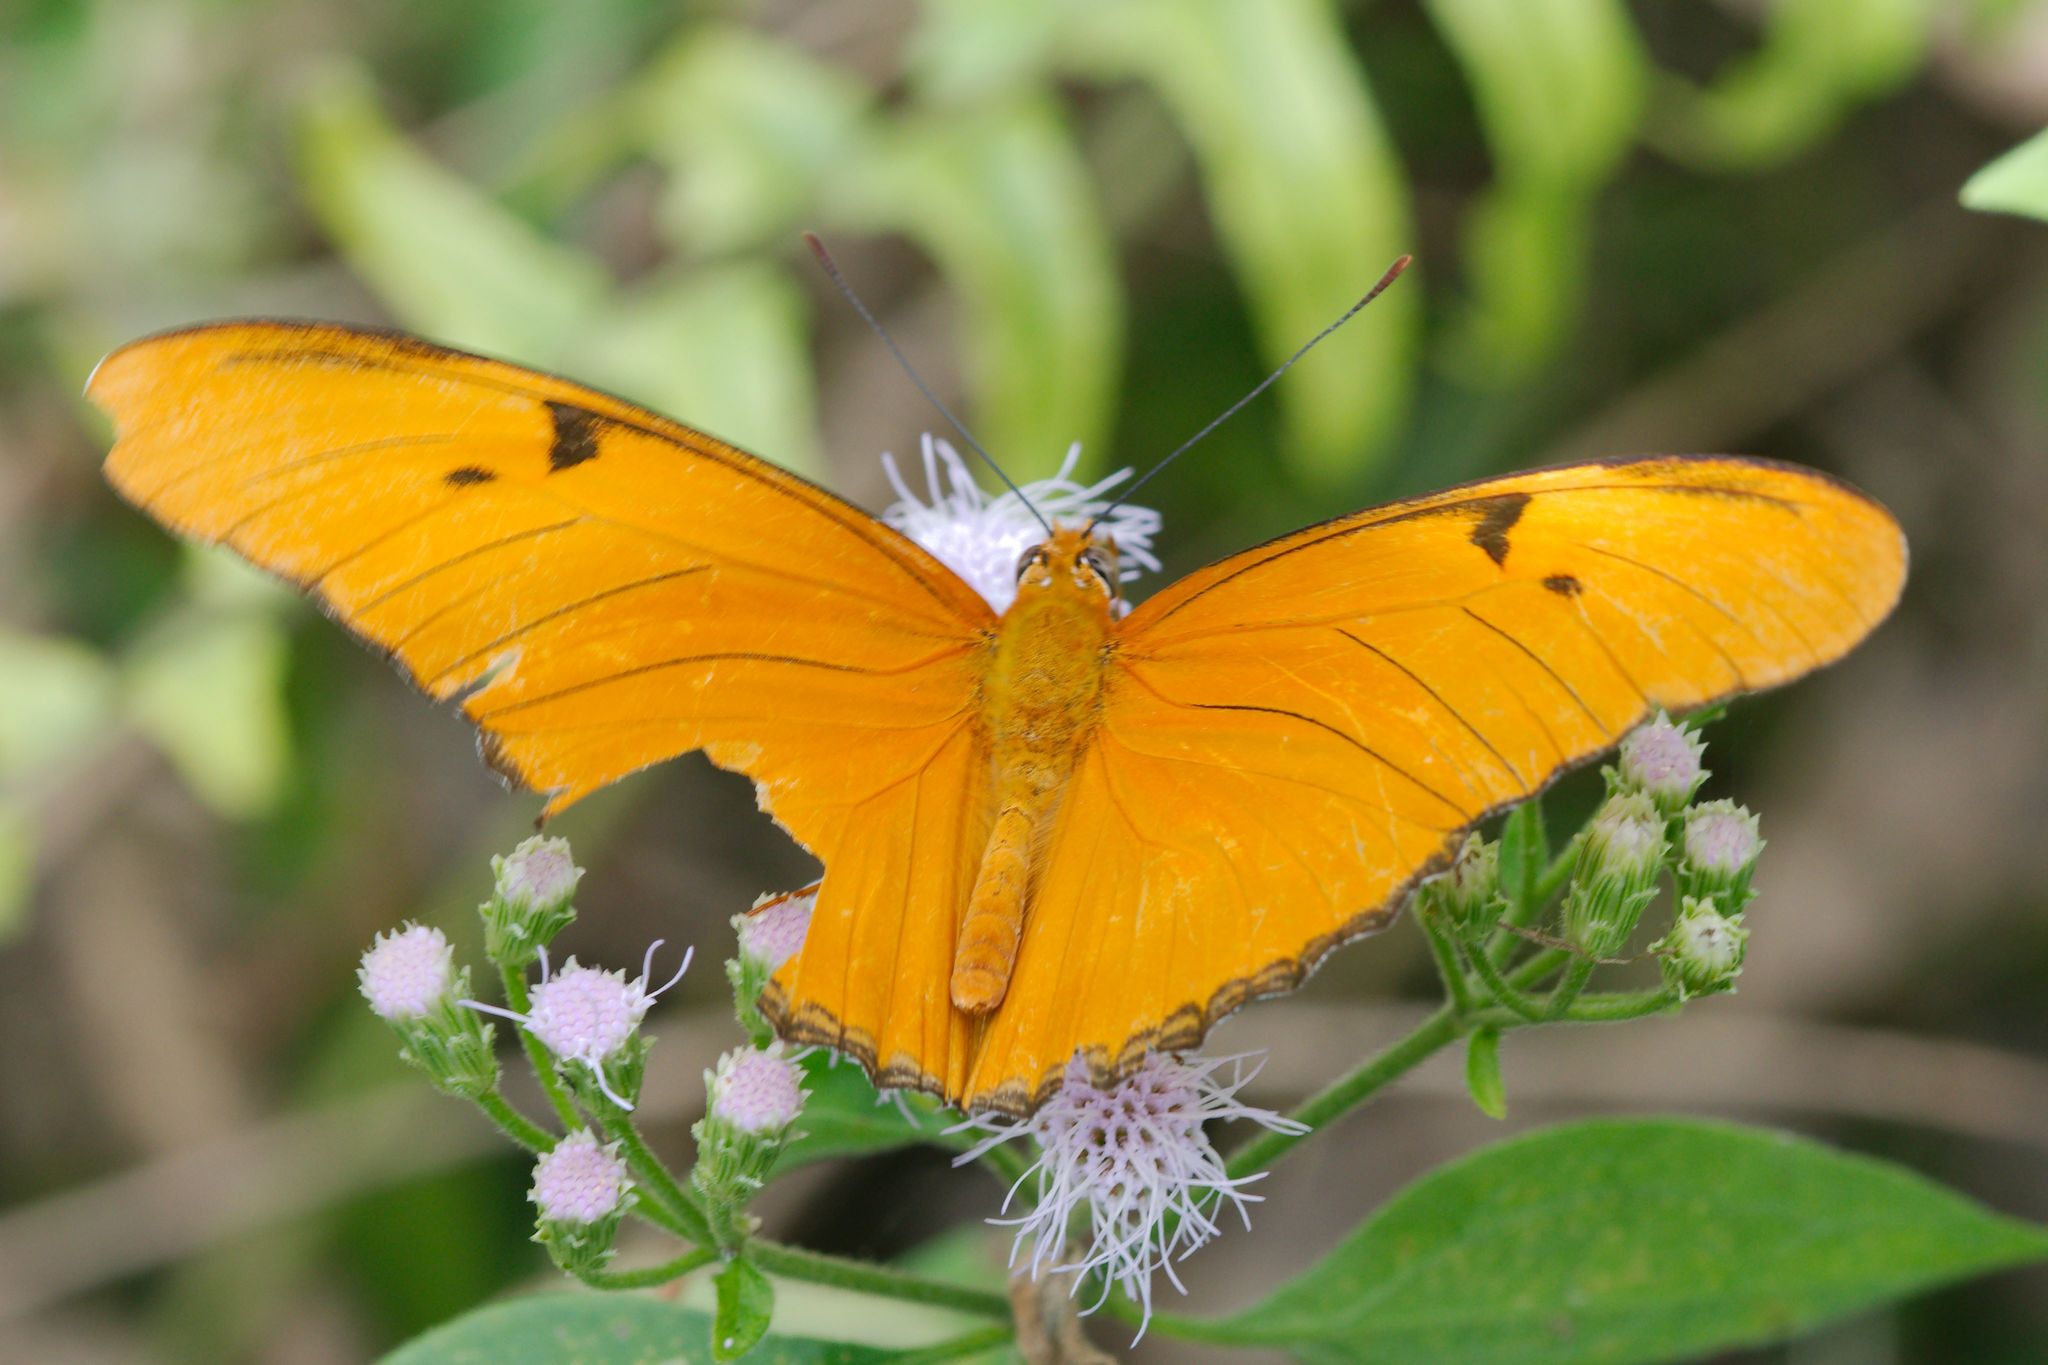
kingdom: Animalia
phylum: Arthropoda
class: Insecta
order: Lepidoptera
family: Nymphalidae
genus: Dryas
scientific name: Dryas iulia
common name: Flambeau
